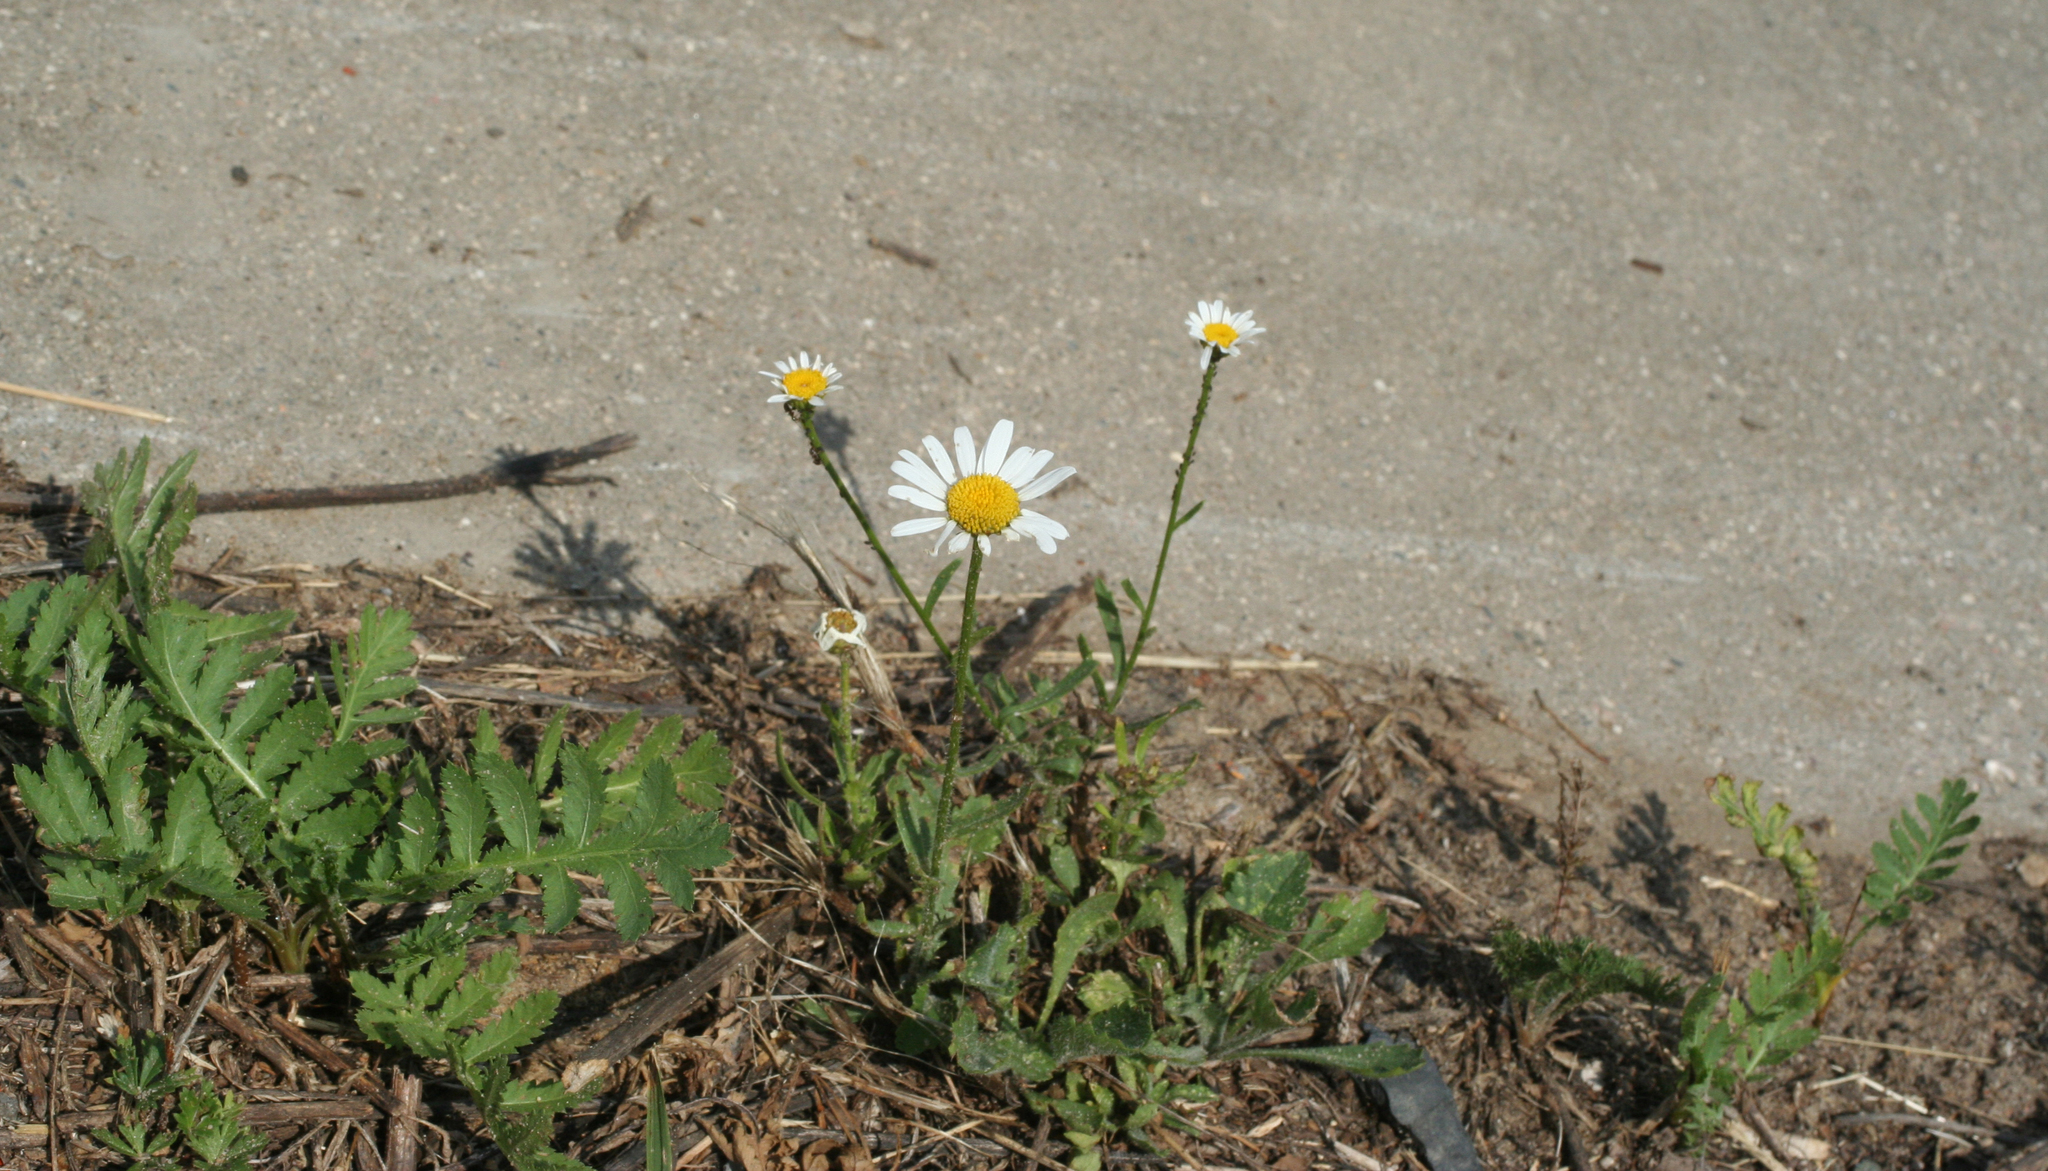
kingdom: Plantae
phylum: Tracheophyta
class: Magnoliopsida
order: Asterales
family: Asteraceae
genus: Leucanthemum
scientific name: Leucanthemum vulgare
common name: Oxeye daisy
